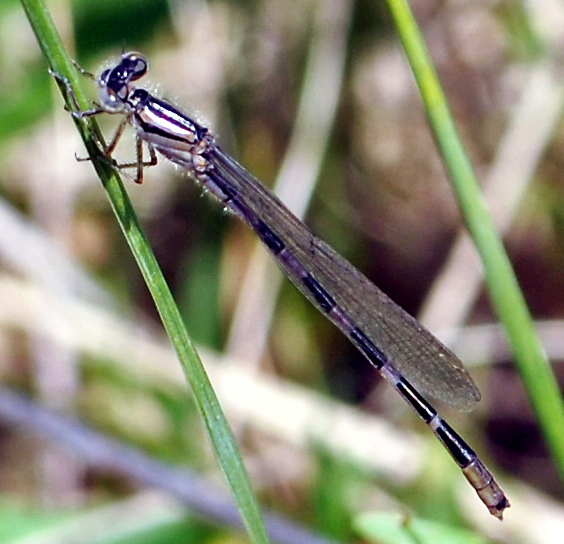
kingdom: Animalia
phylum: Arthropoda
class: Insecta
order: Odonata
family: Coenagrionidae
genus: Enallagma
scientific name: Enallagma carunculatum
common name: Tule bluet
